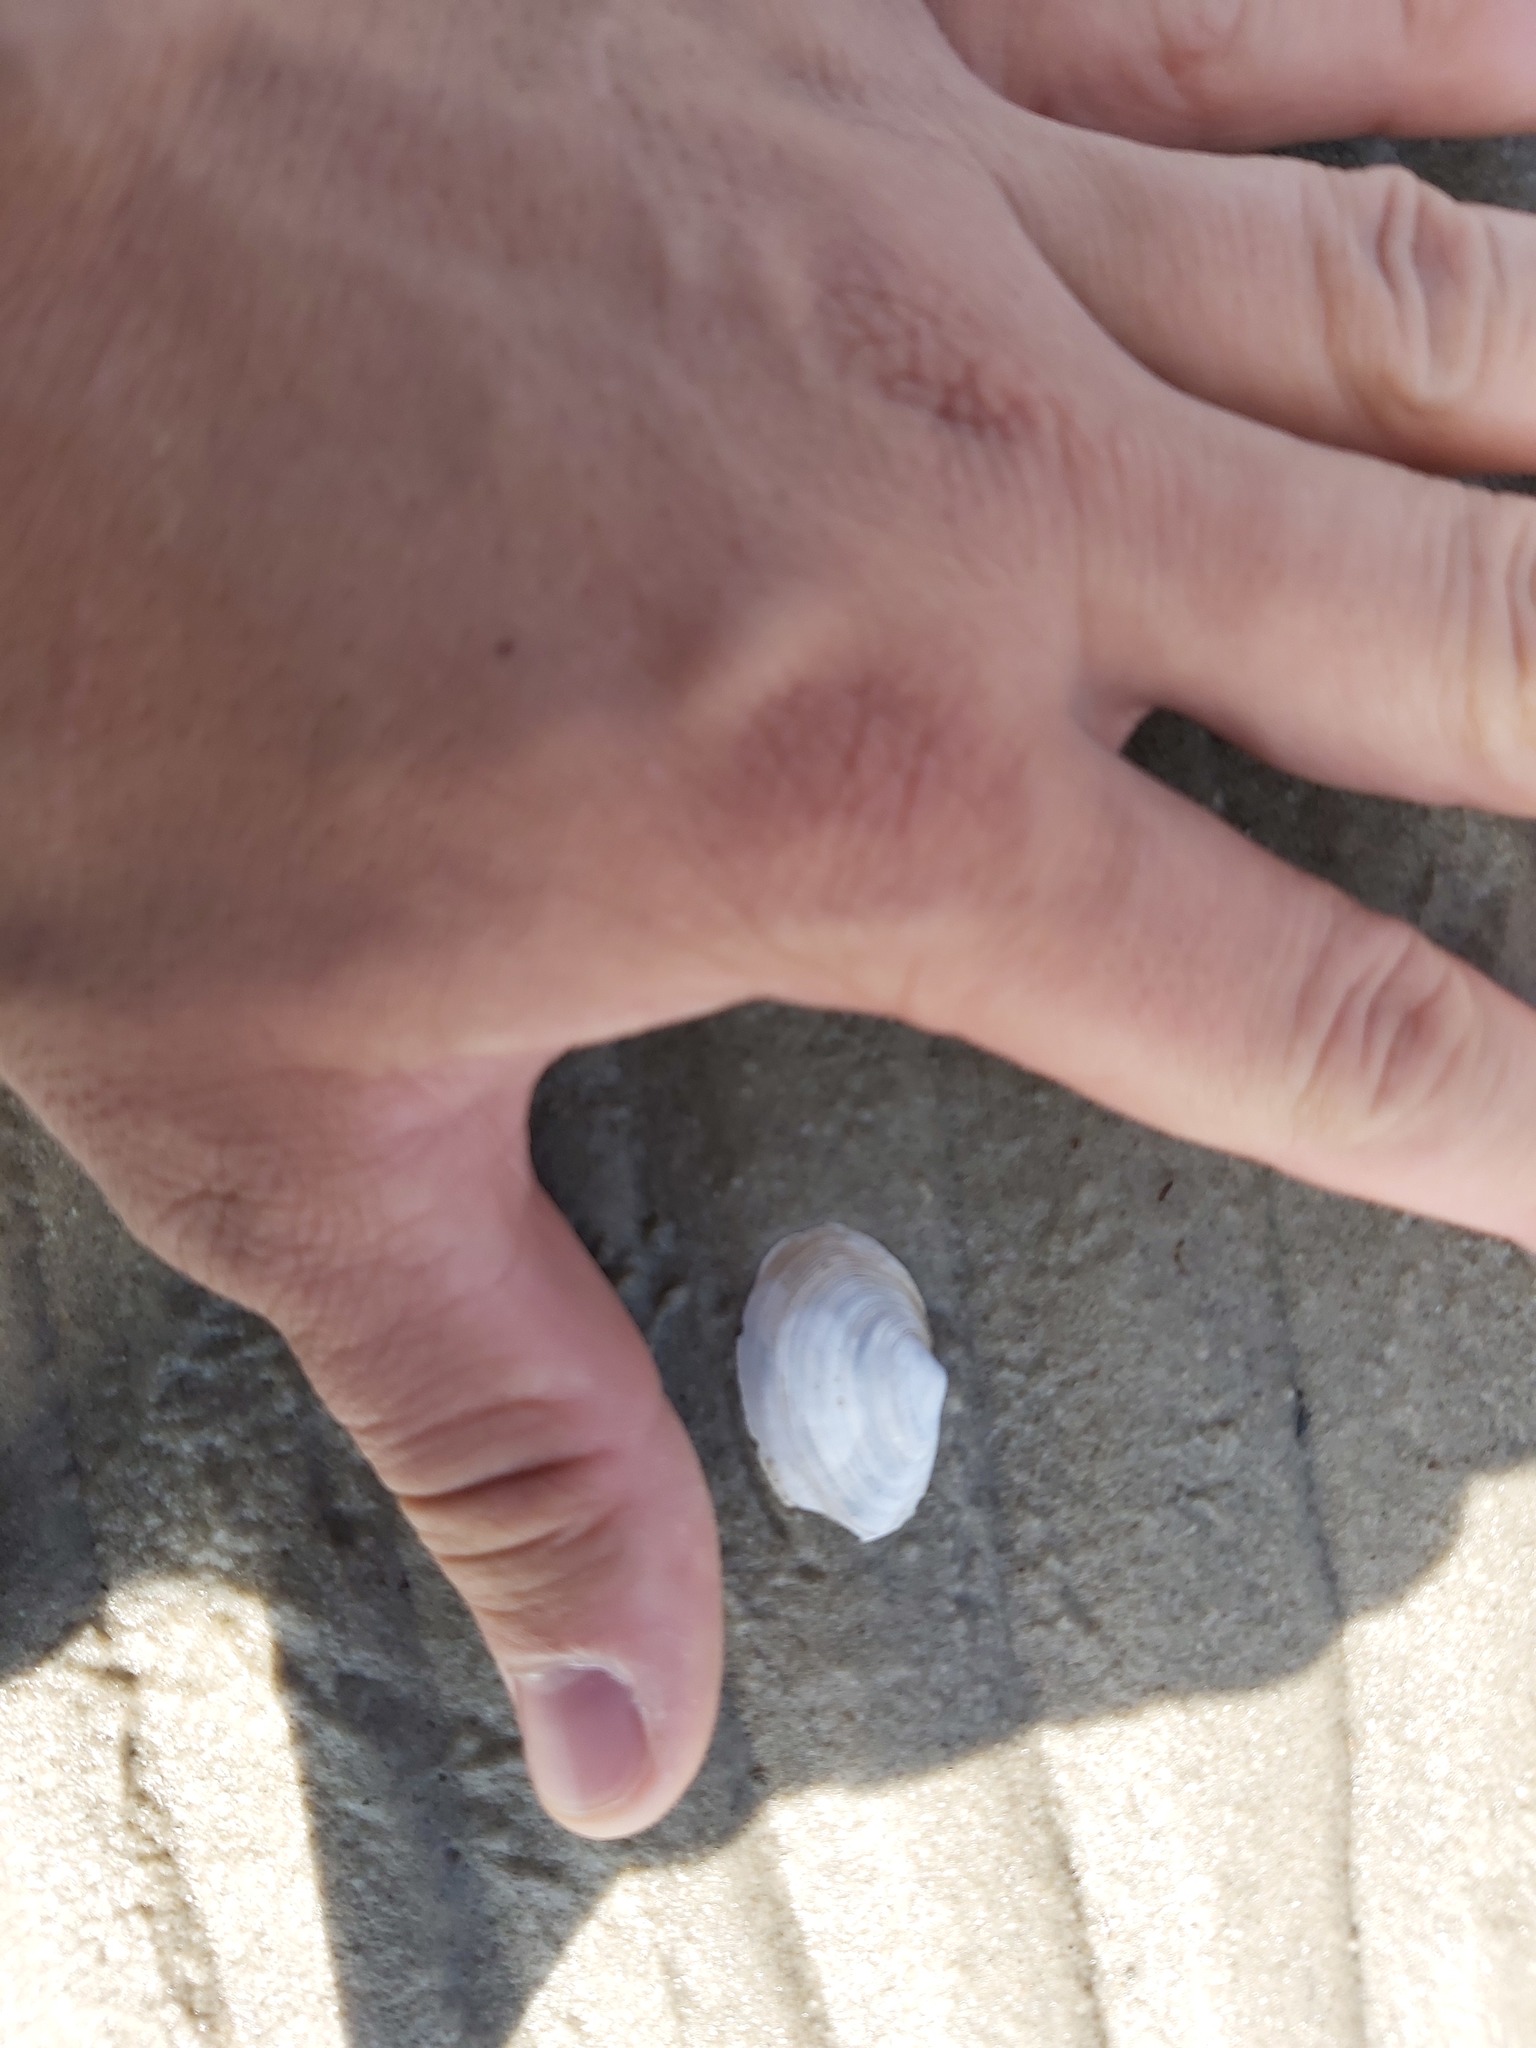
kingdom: Animalia
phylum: Mollusca
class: Bivalvia
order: Myida
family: Myidae
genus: Mya
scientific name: Mya arenaria
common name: Soft-shelled clam
